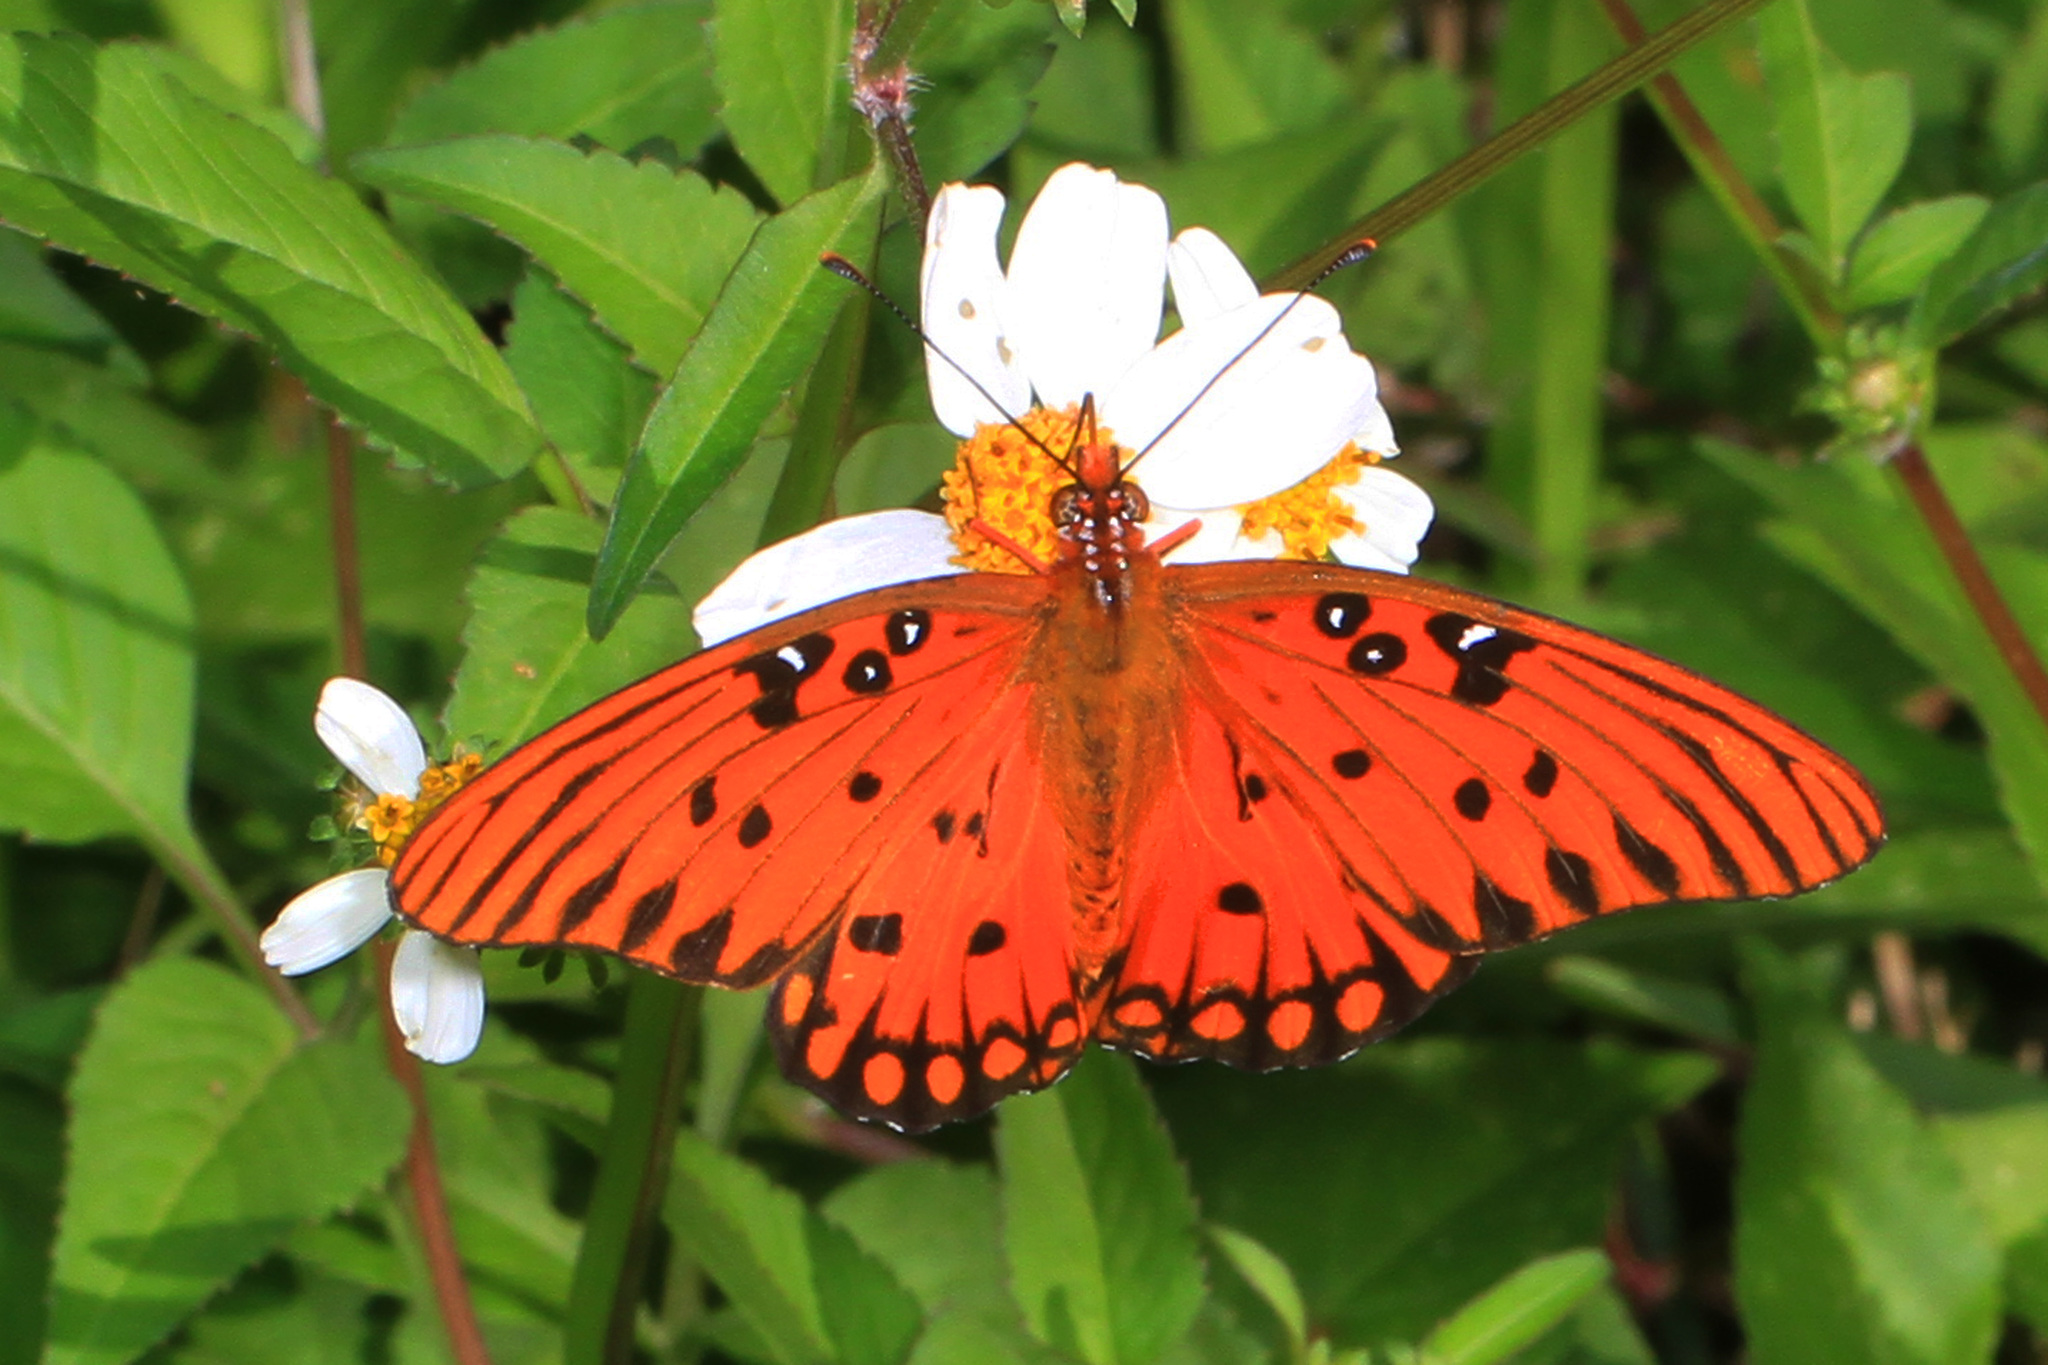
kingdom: Animalia
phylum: Arthropoda
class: Insecta
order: Lepidoptera
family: Nymphalidae
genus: Dione
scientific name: Dione vanillae
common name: Gulf fritillary
